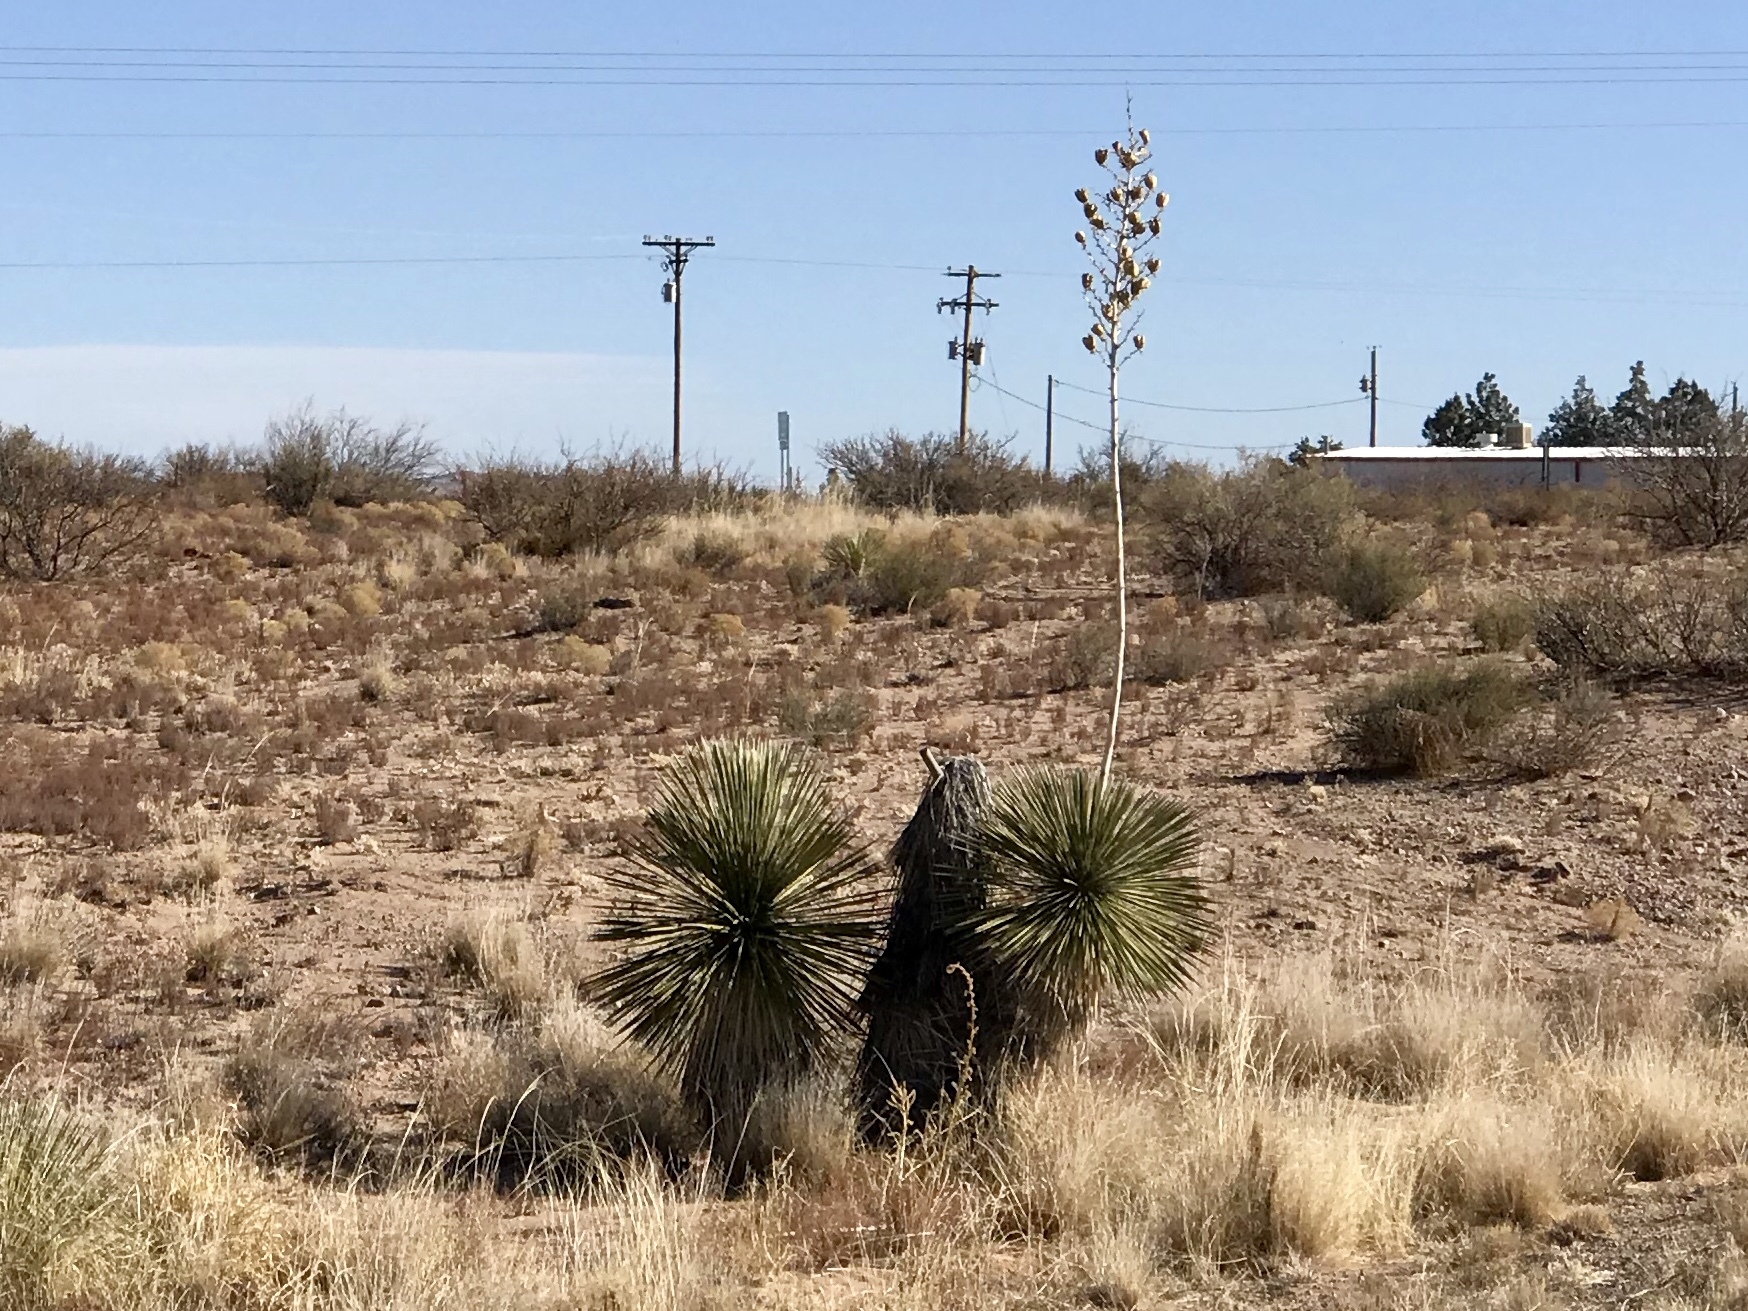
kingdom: Plantae
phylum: Tracheophyta
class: Liliopsida
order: Asparagales
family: Asparagaceae
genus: Yucca
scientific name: Yucca elata
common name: Palmella
